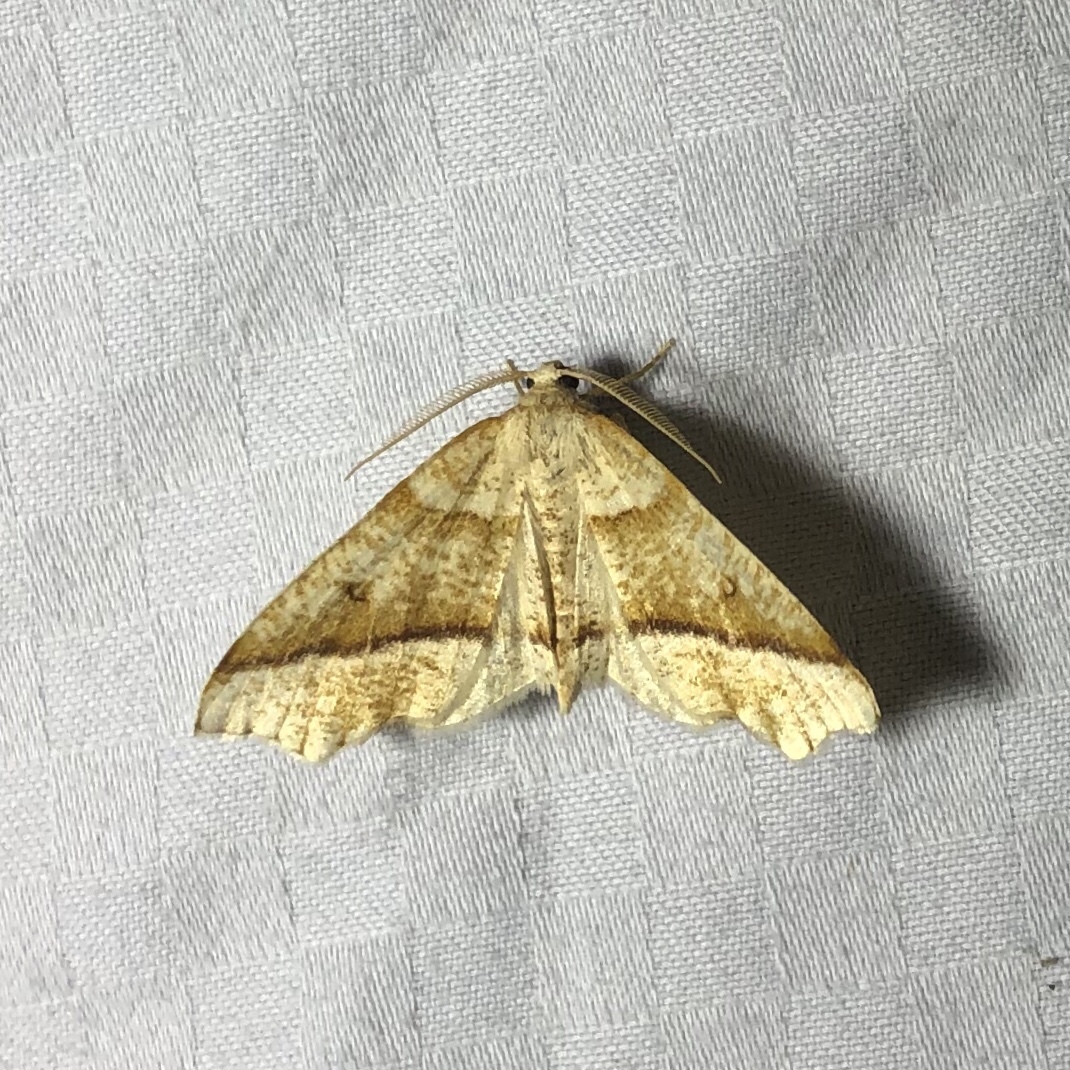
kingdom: Animalia
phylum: Arthropoda
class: Insecta
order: Lepidoptera
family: Geometridae
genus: Plagodis
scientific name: Plagodis alcoolaria
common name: Hollow-spotted plagodis
